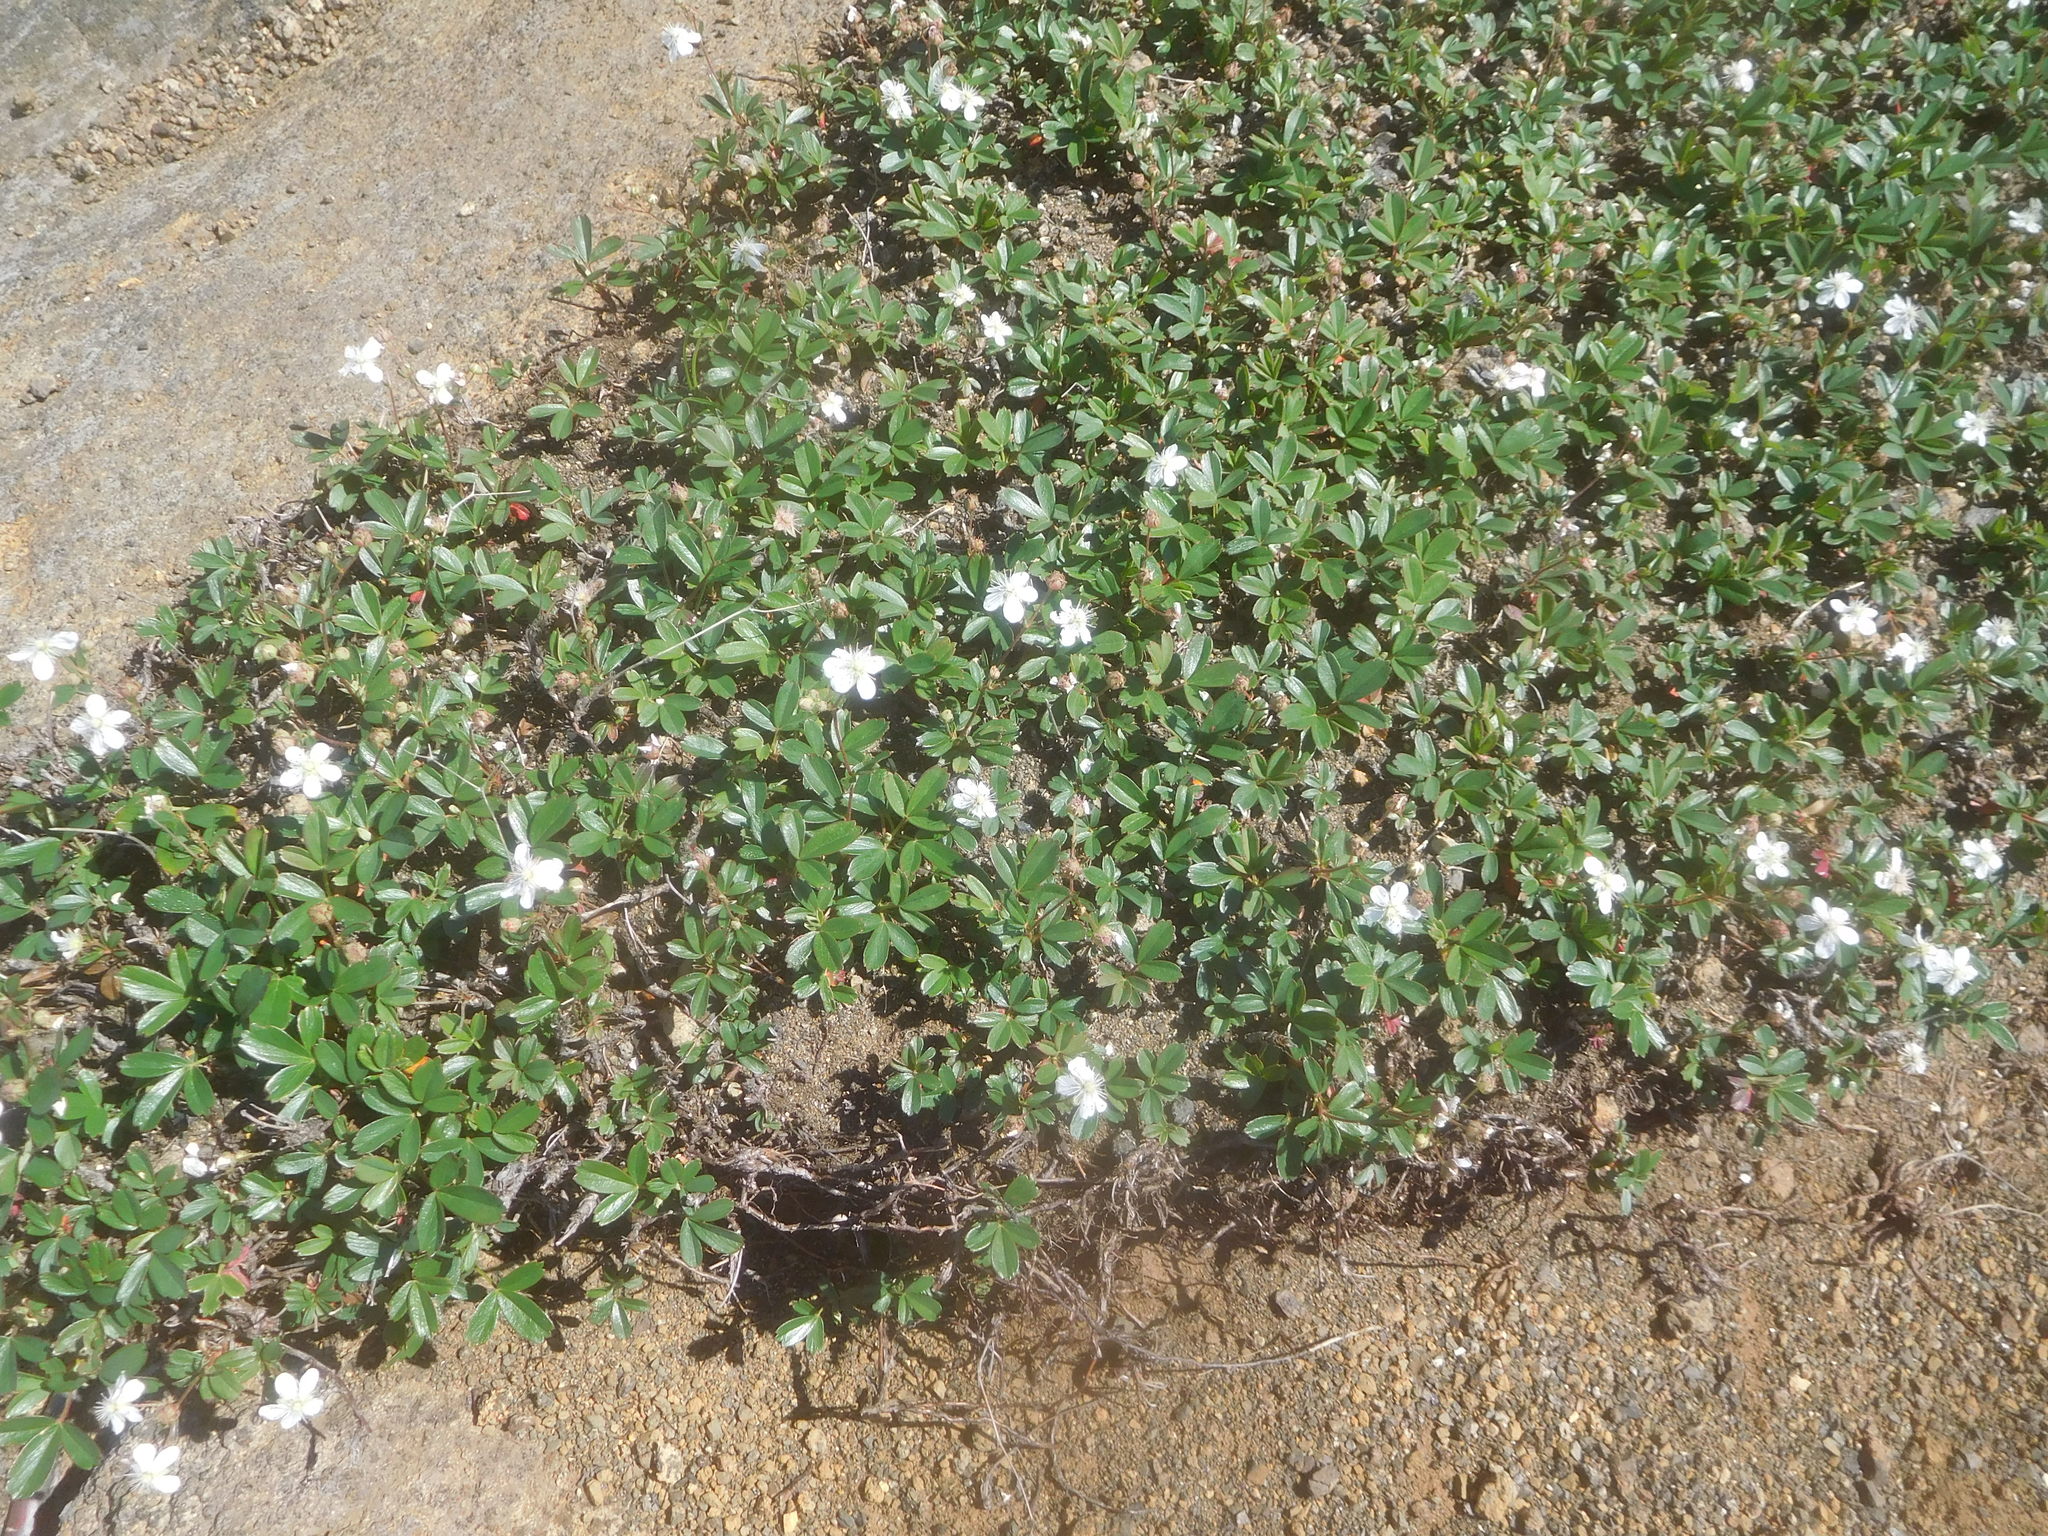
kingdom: Plantae
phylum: Tracheophyta
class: Magnoliopsida
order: Rosales
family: Rosaceae
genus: Sibbaldia
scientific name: Sibbaldia tridentata
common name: Three-toothed cinquefoil
